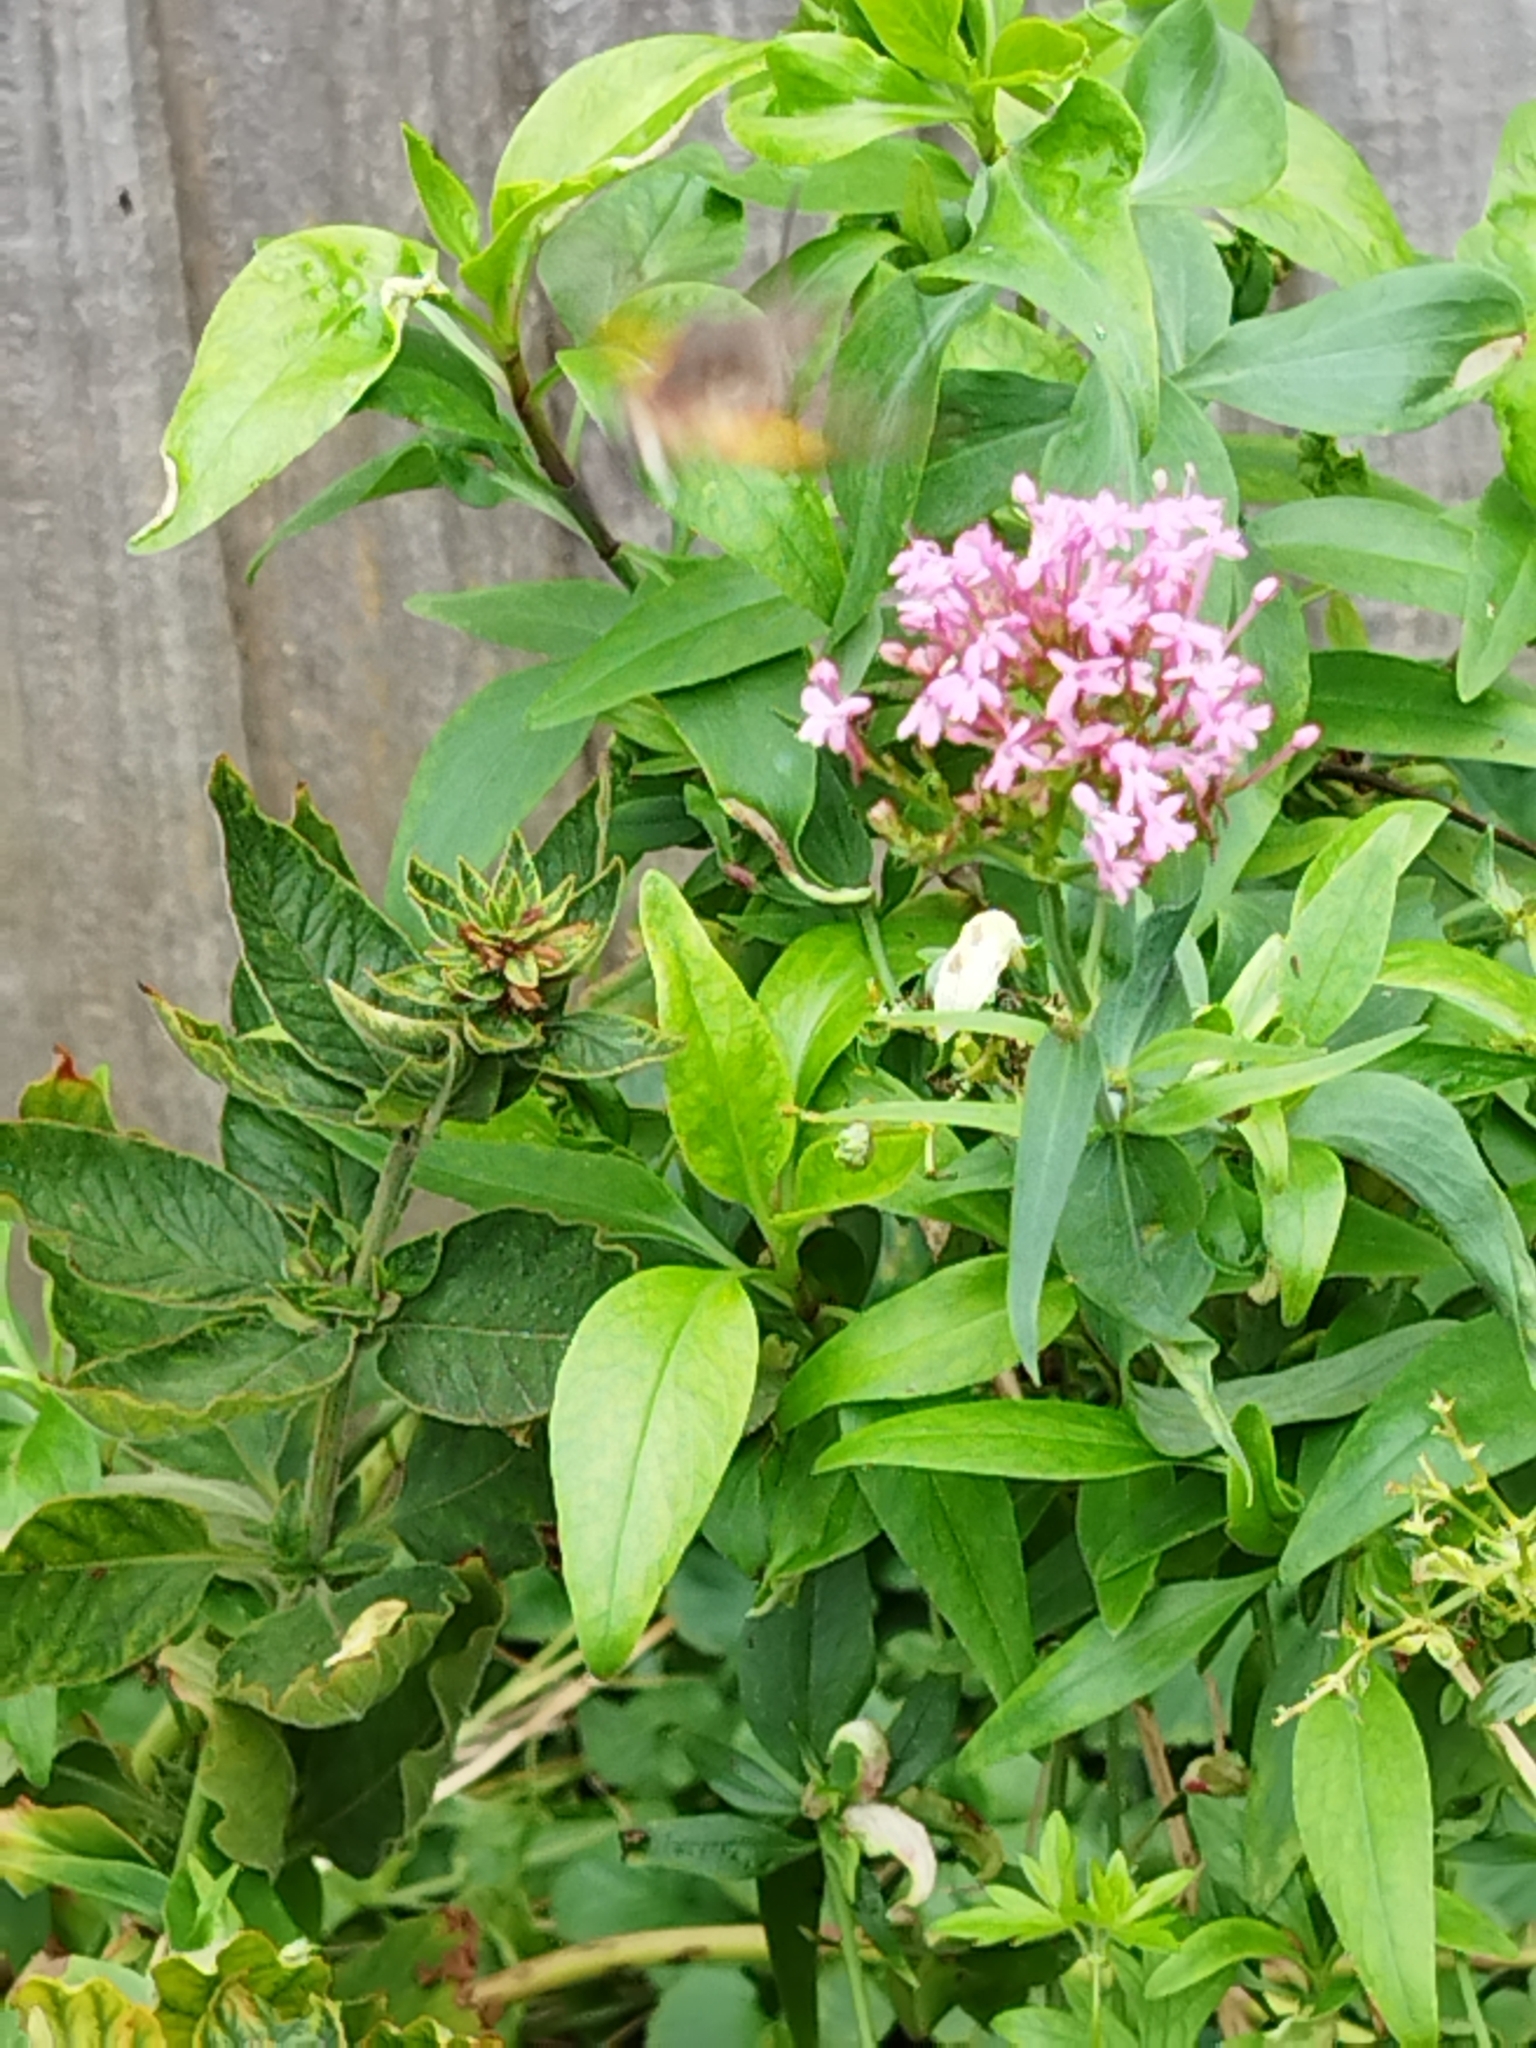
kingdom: Animalia
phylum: Arthropoda
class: Insecta
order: Lepidoptera
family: Sphingidae
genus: Macroglossum
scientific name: Macroglossum stellatarum
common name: Humming-bird hawk-moth
